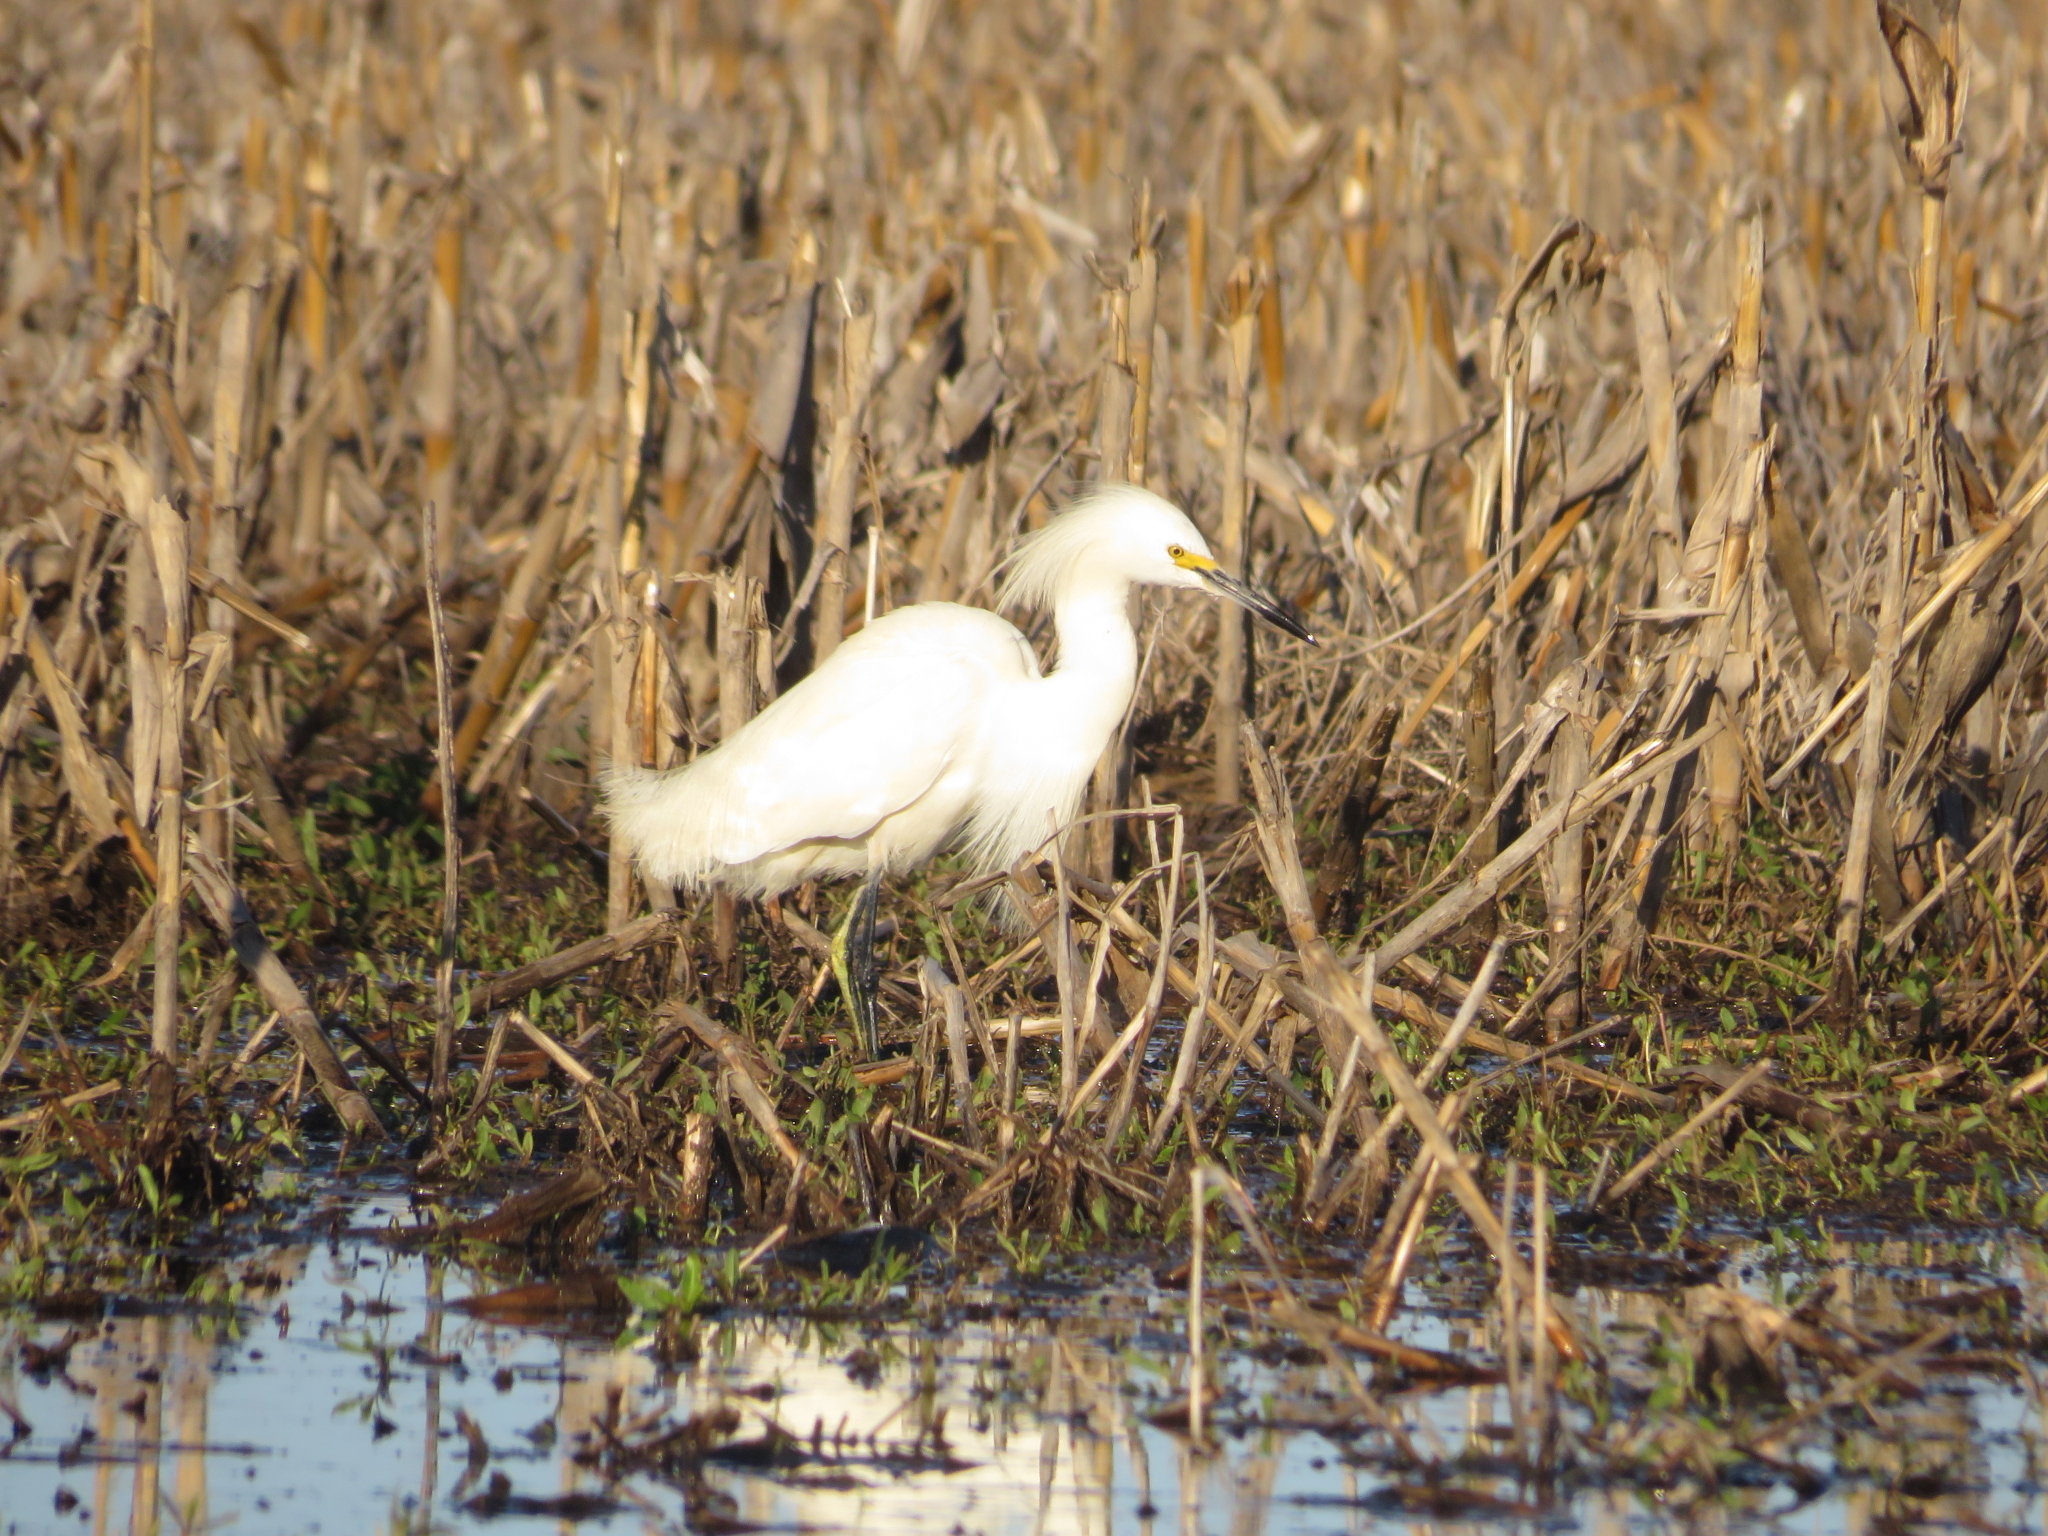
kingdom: Animalia
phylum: Chordata
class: Aves
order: Pelecaniformes
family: Ardeidae
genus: Egretta
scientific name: Egretta thula
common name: Snowy egret
